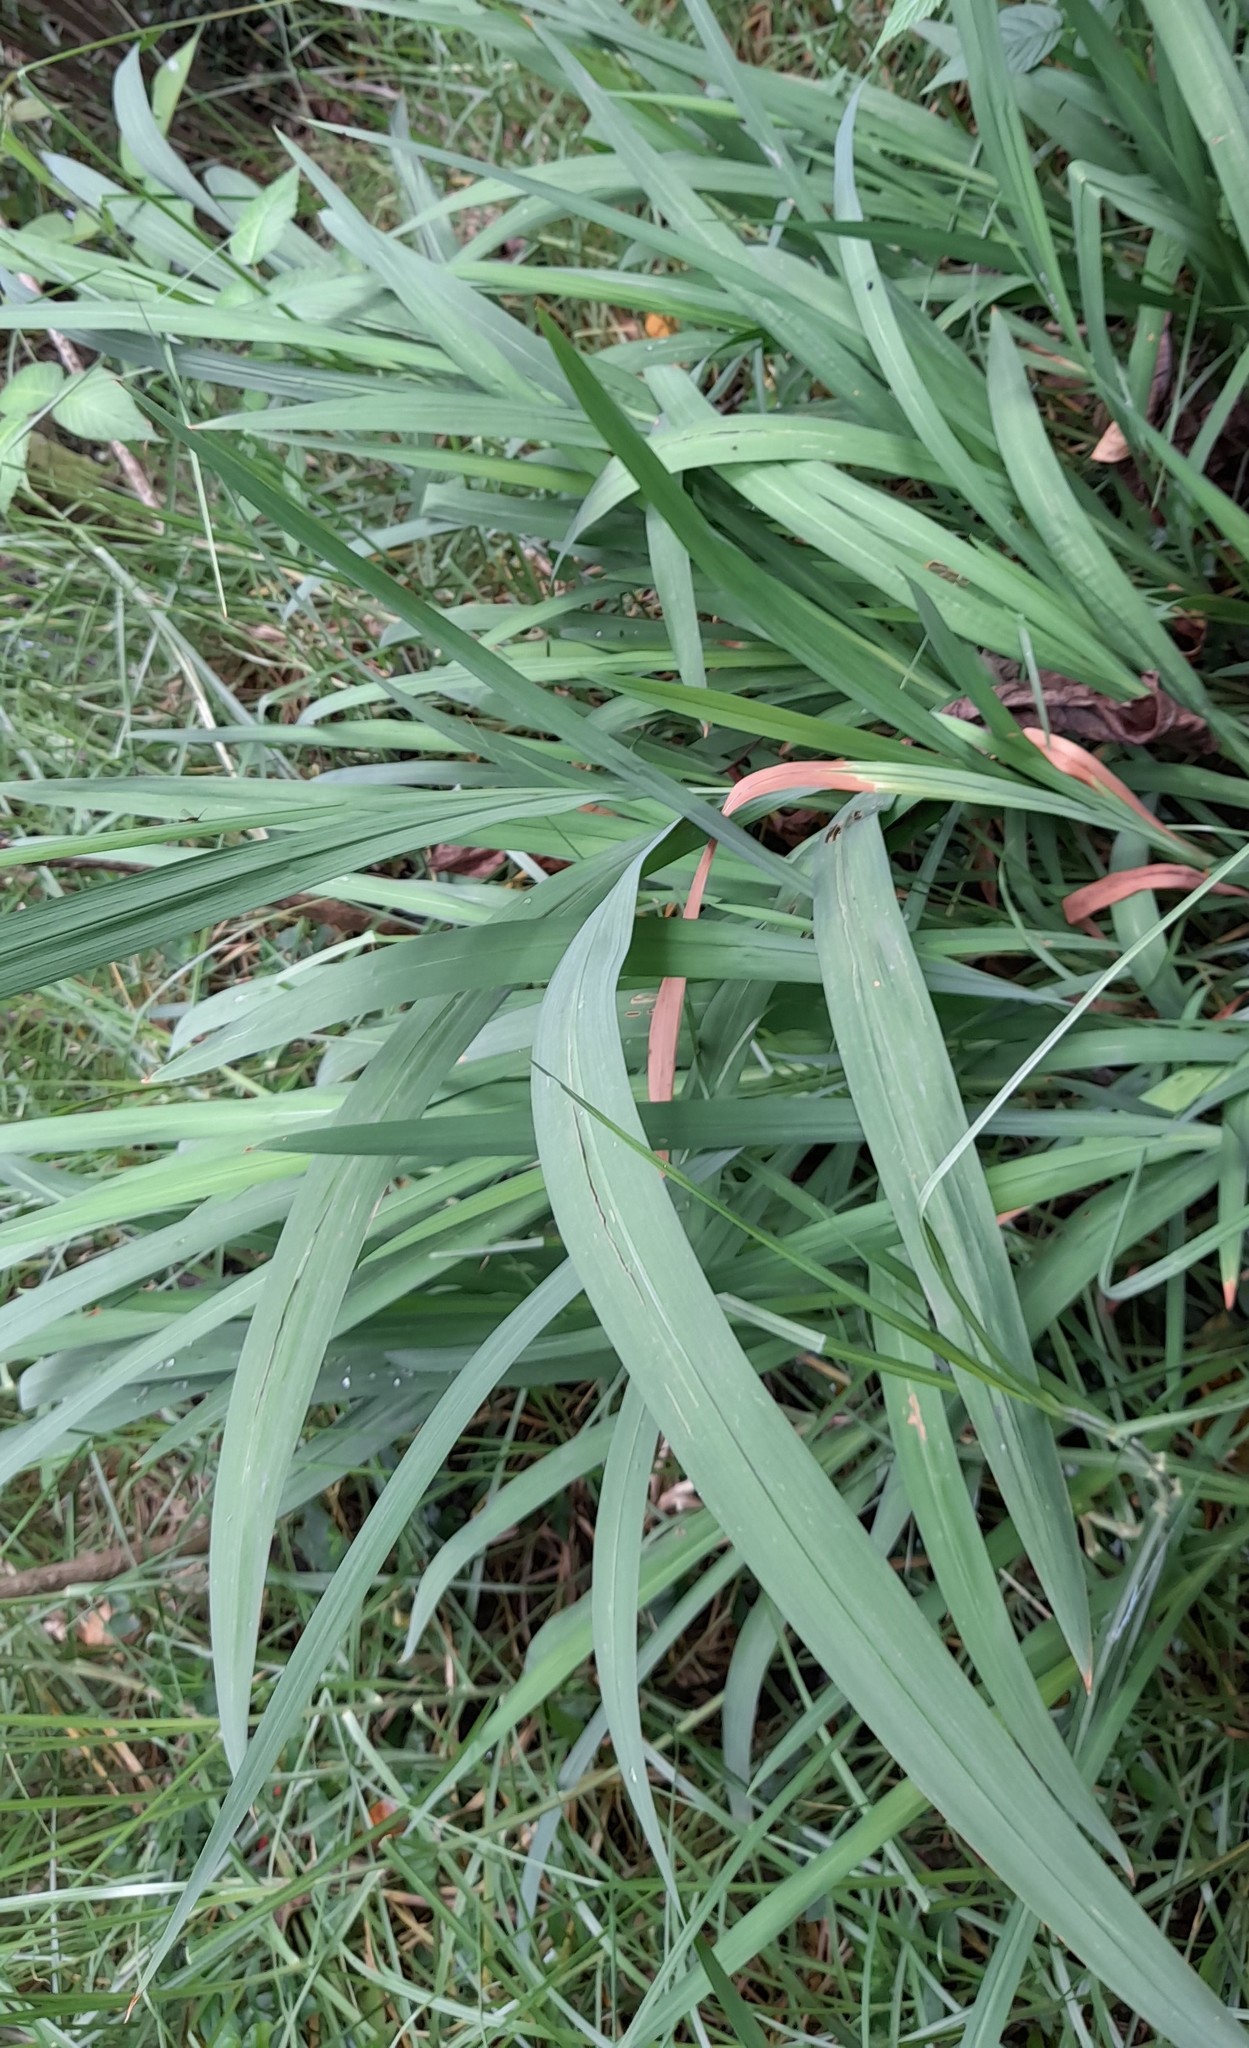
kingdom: Plantae
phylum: Tracheophyta
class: Liliopsida
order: Asparagales
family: Iridaceae
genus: Crocosmia
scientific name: Crocosmia crocosmiiflora
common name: Montbretia
